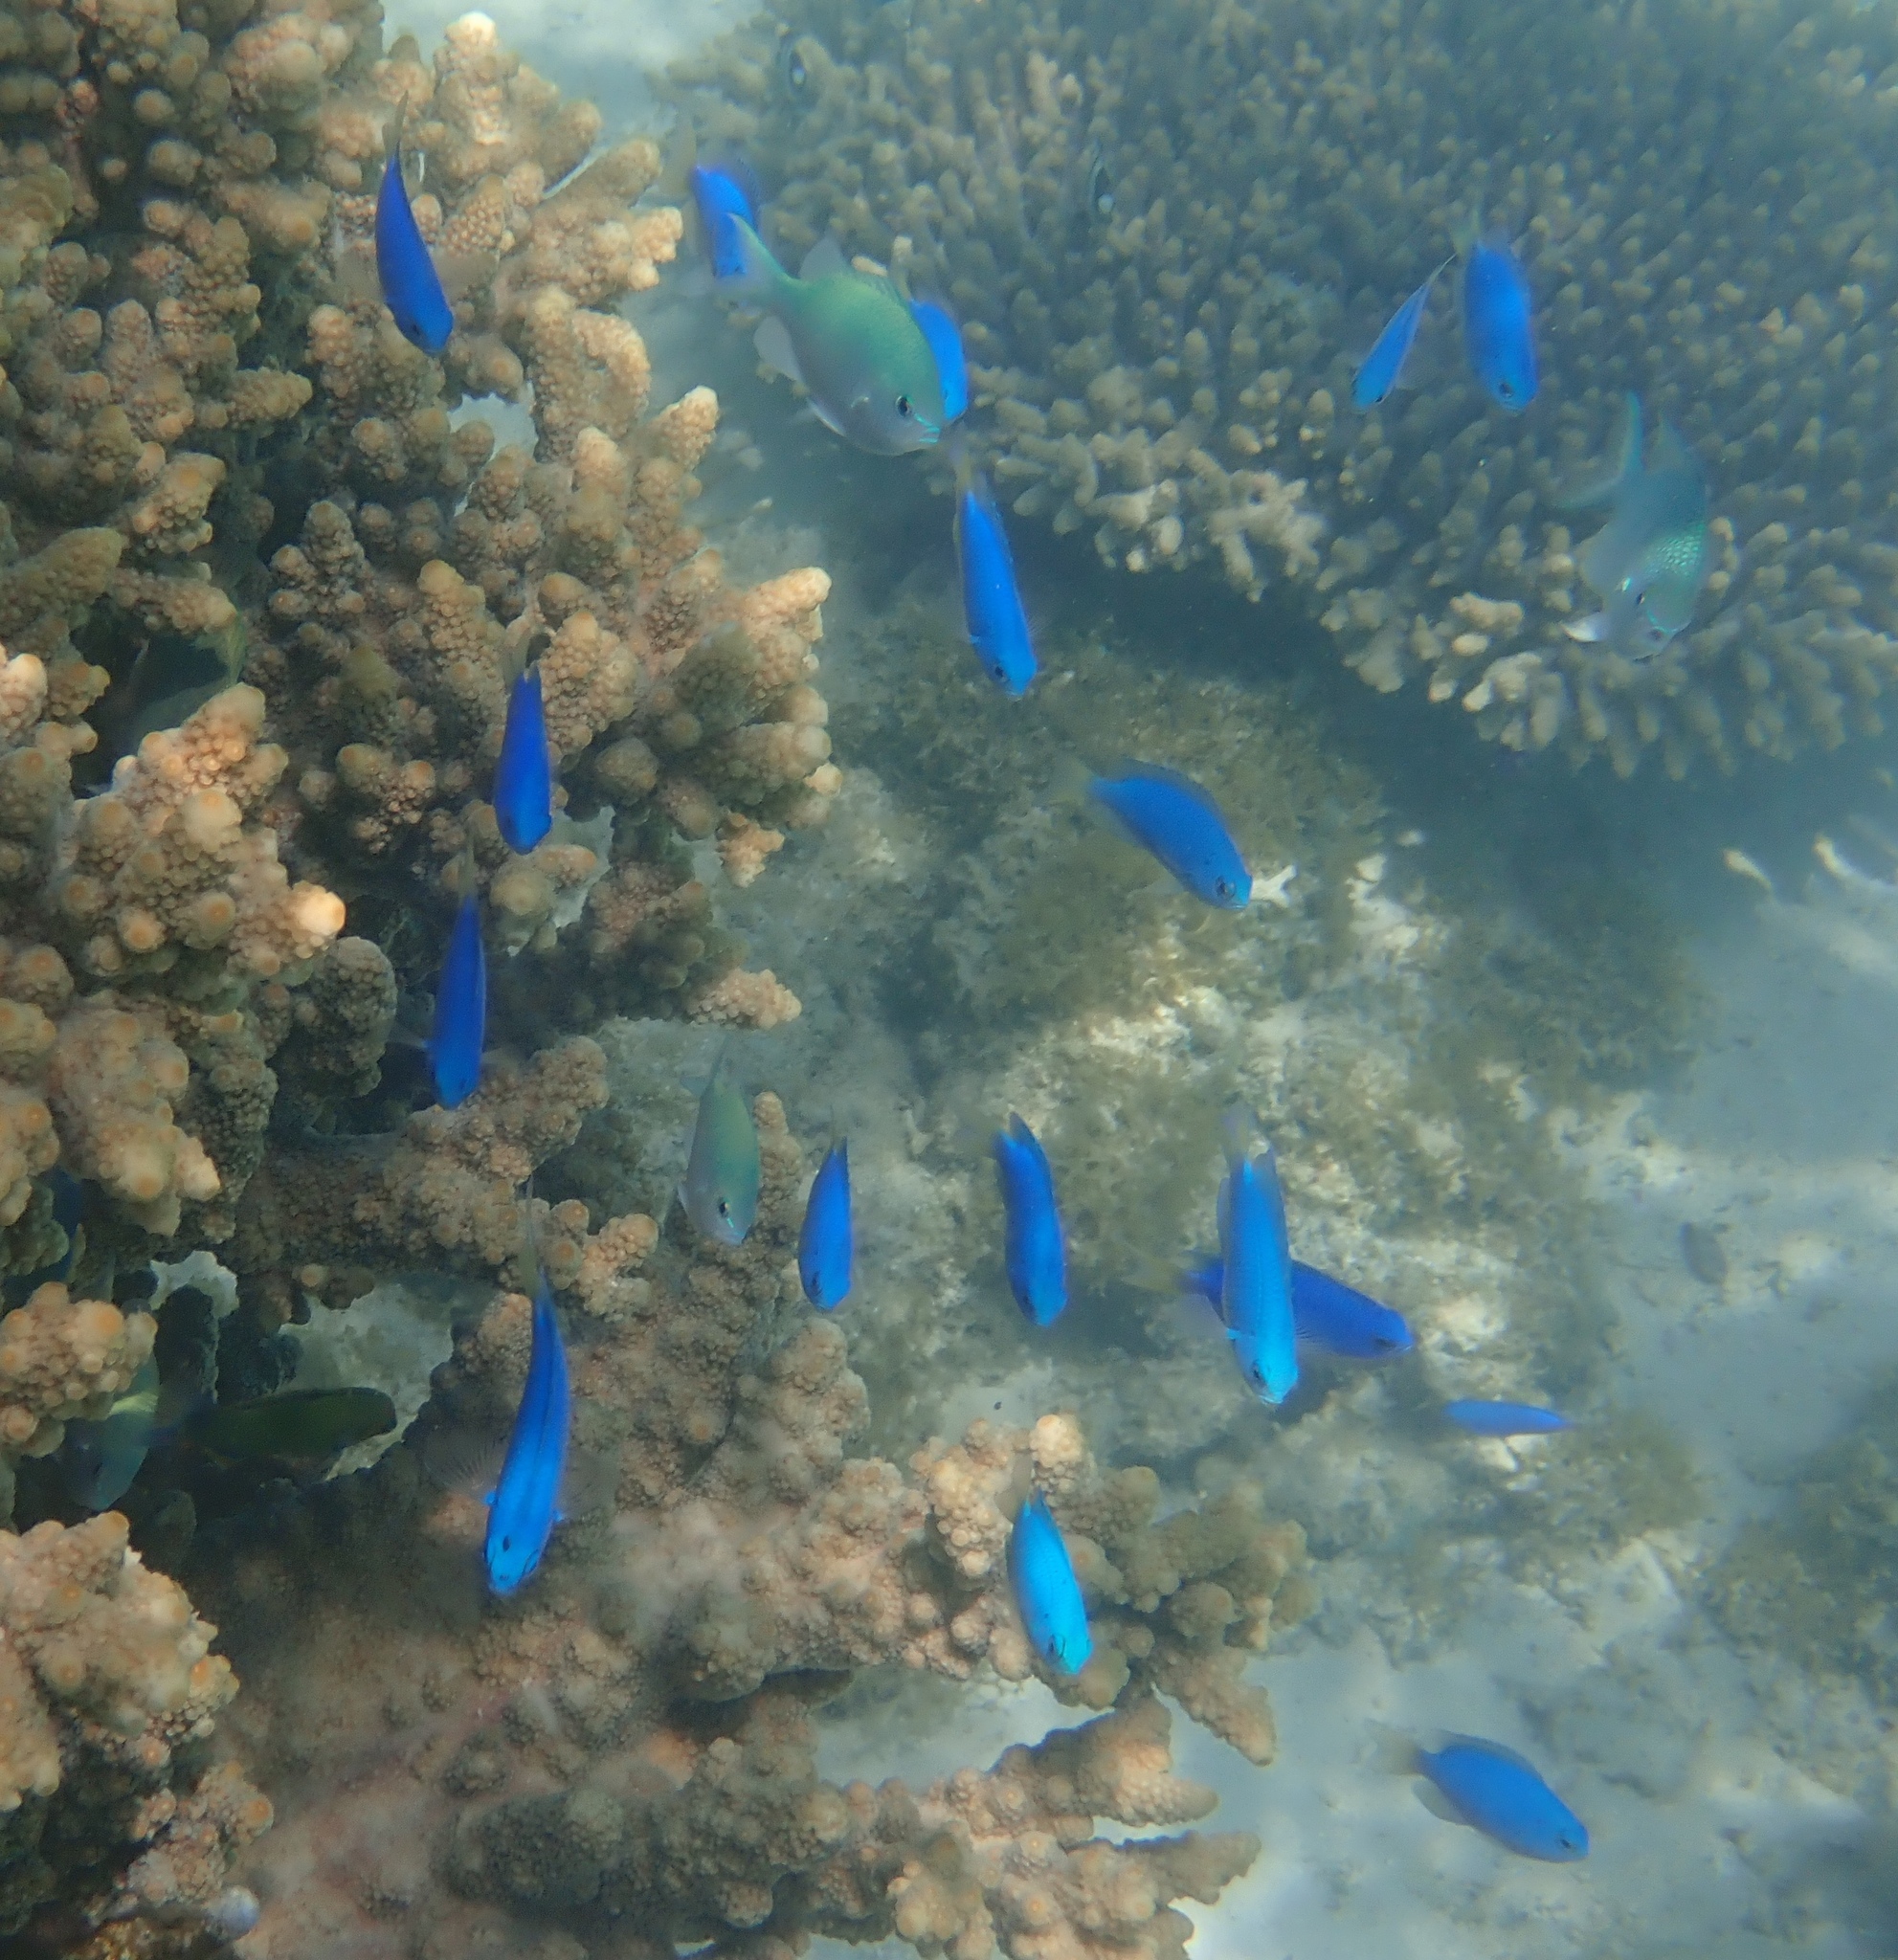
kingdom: Animalia
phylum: Chordata
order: Perciformes
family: Pomacentridae
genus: Pomacentrus
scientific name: Pomacentrus coelestis
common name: Neon damsel
